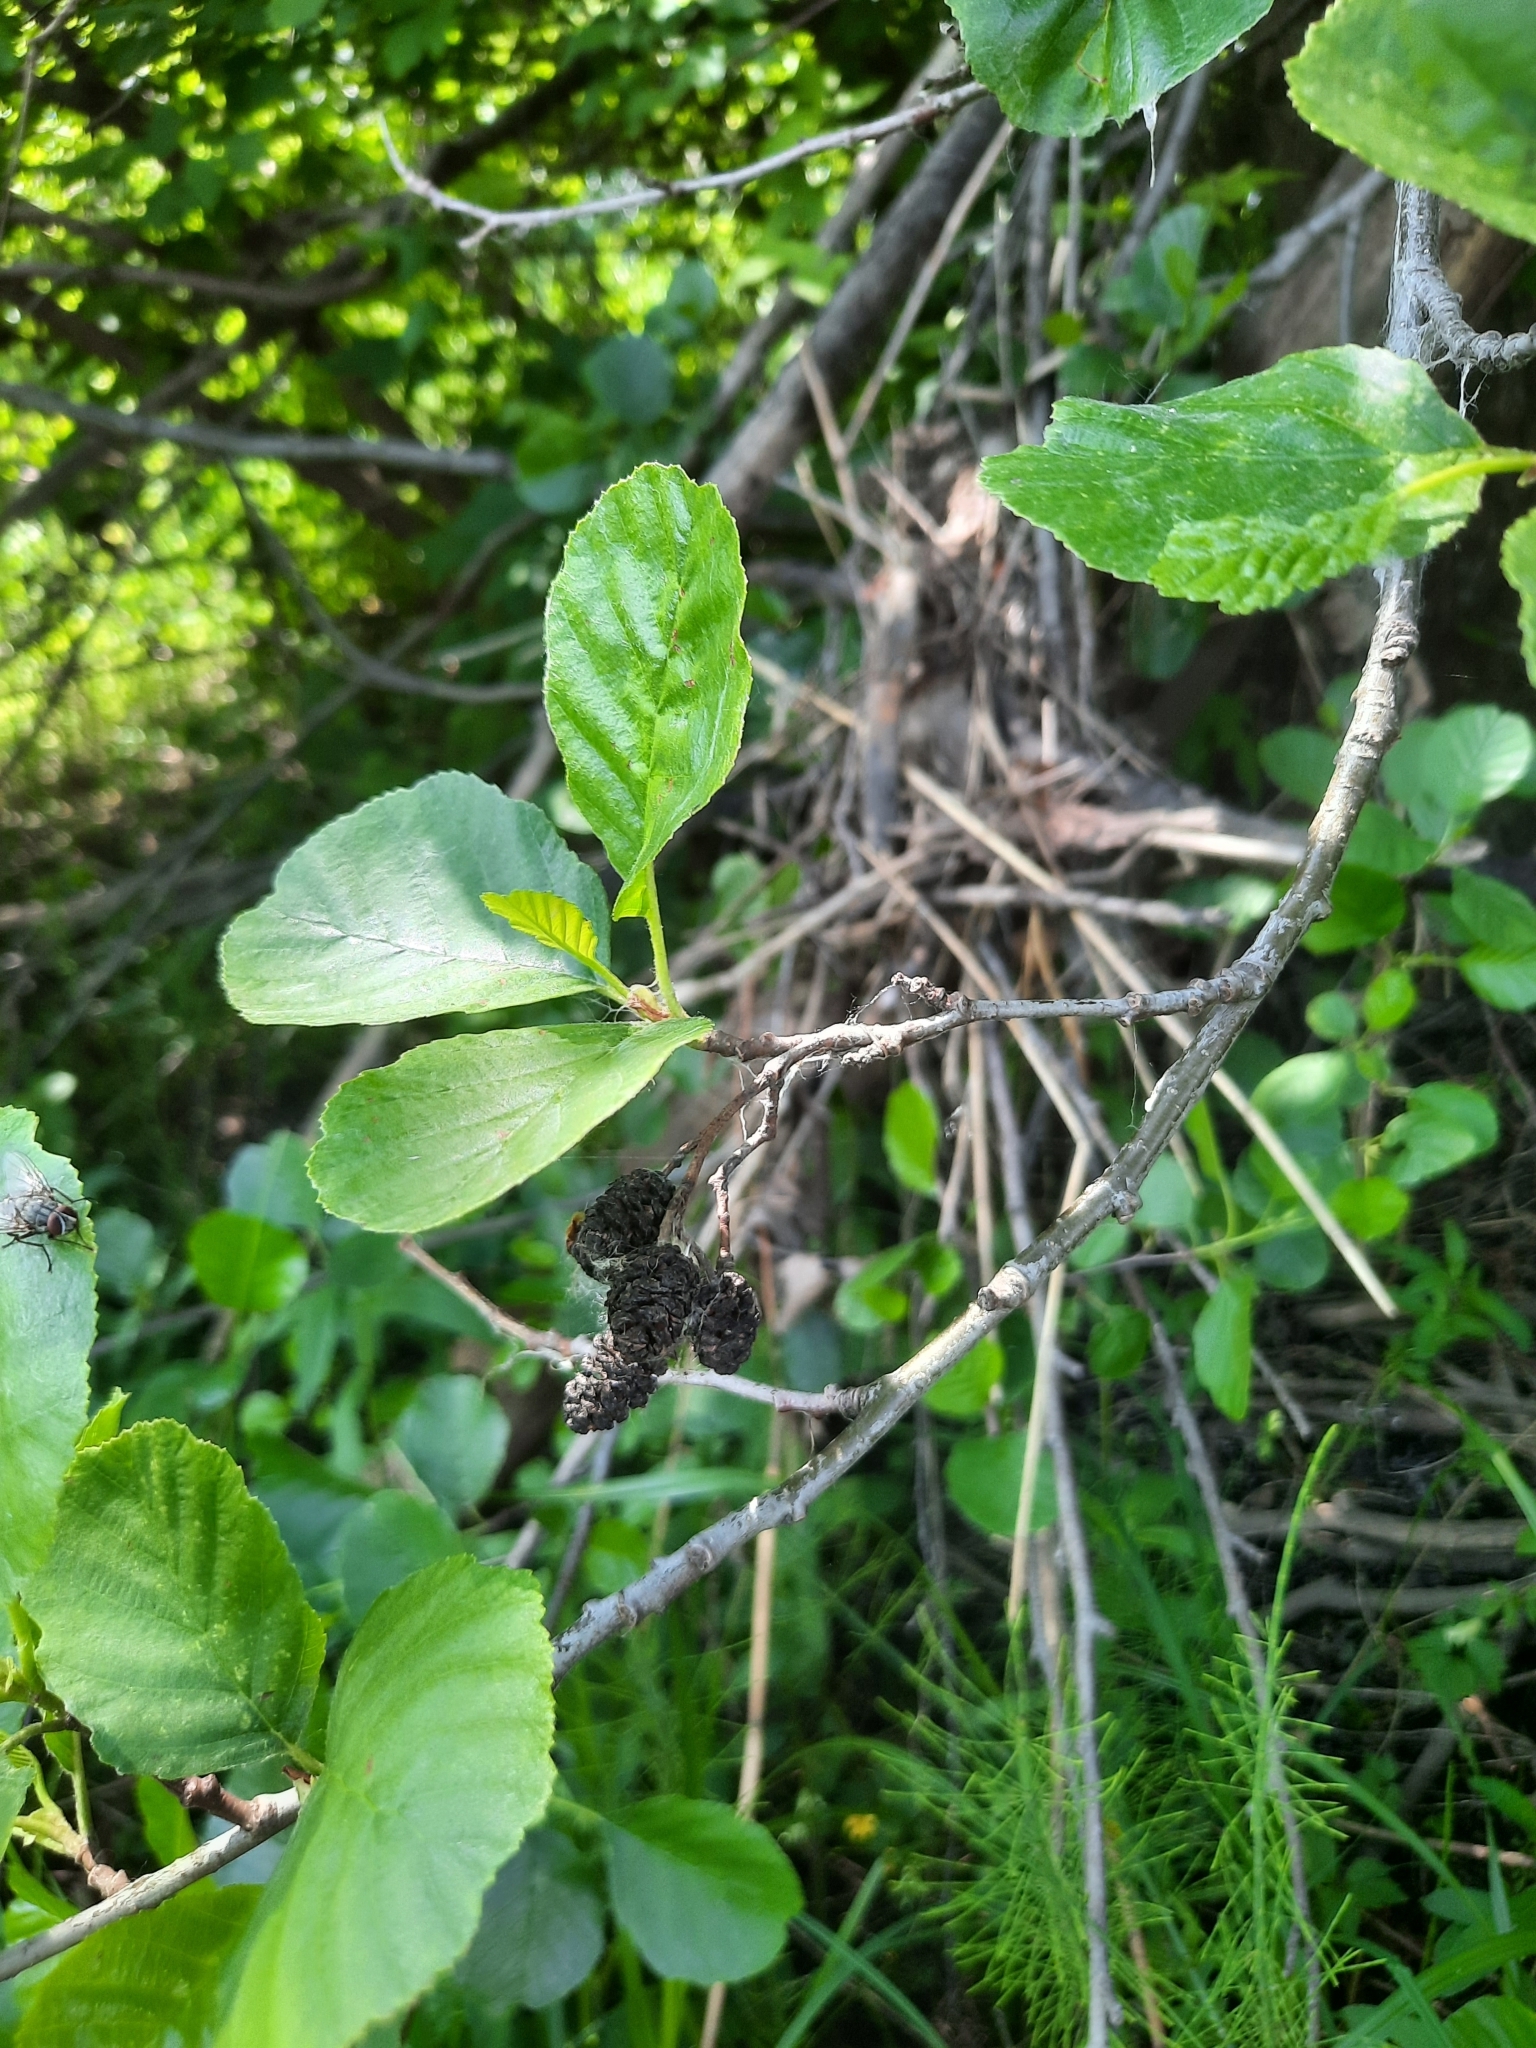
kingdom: Plantae
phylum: Tracheophyta
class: Magnoliopsida
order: Fagales
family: Betulaceae
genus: Alnus
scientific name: Alnus glutinosa
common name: Black alder
